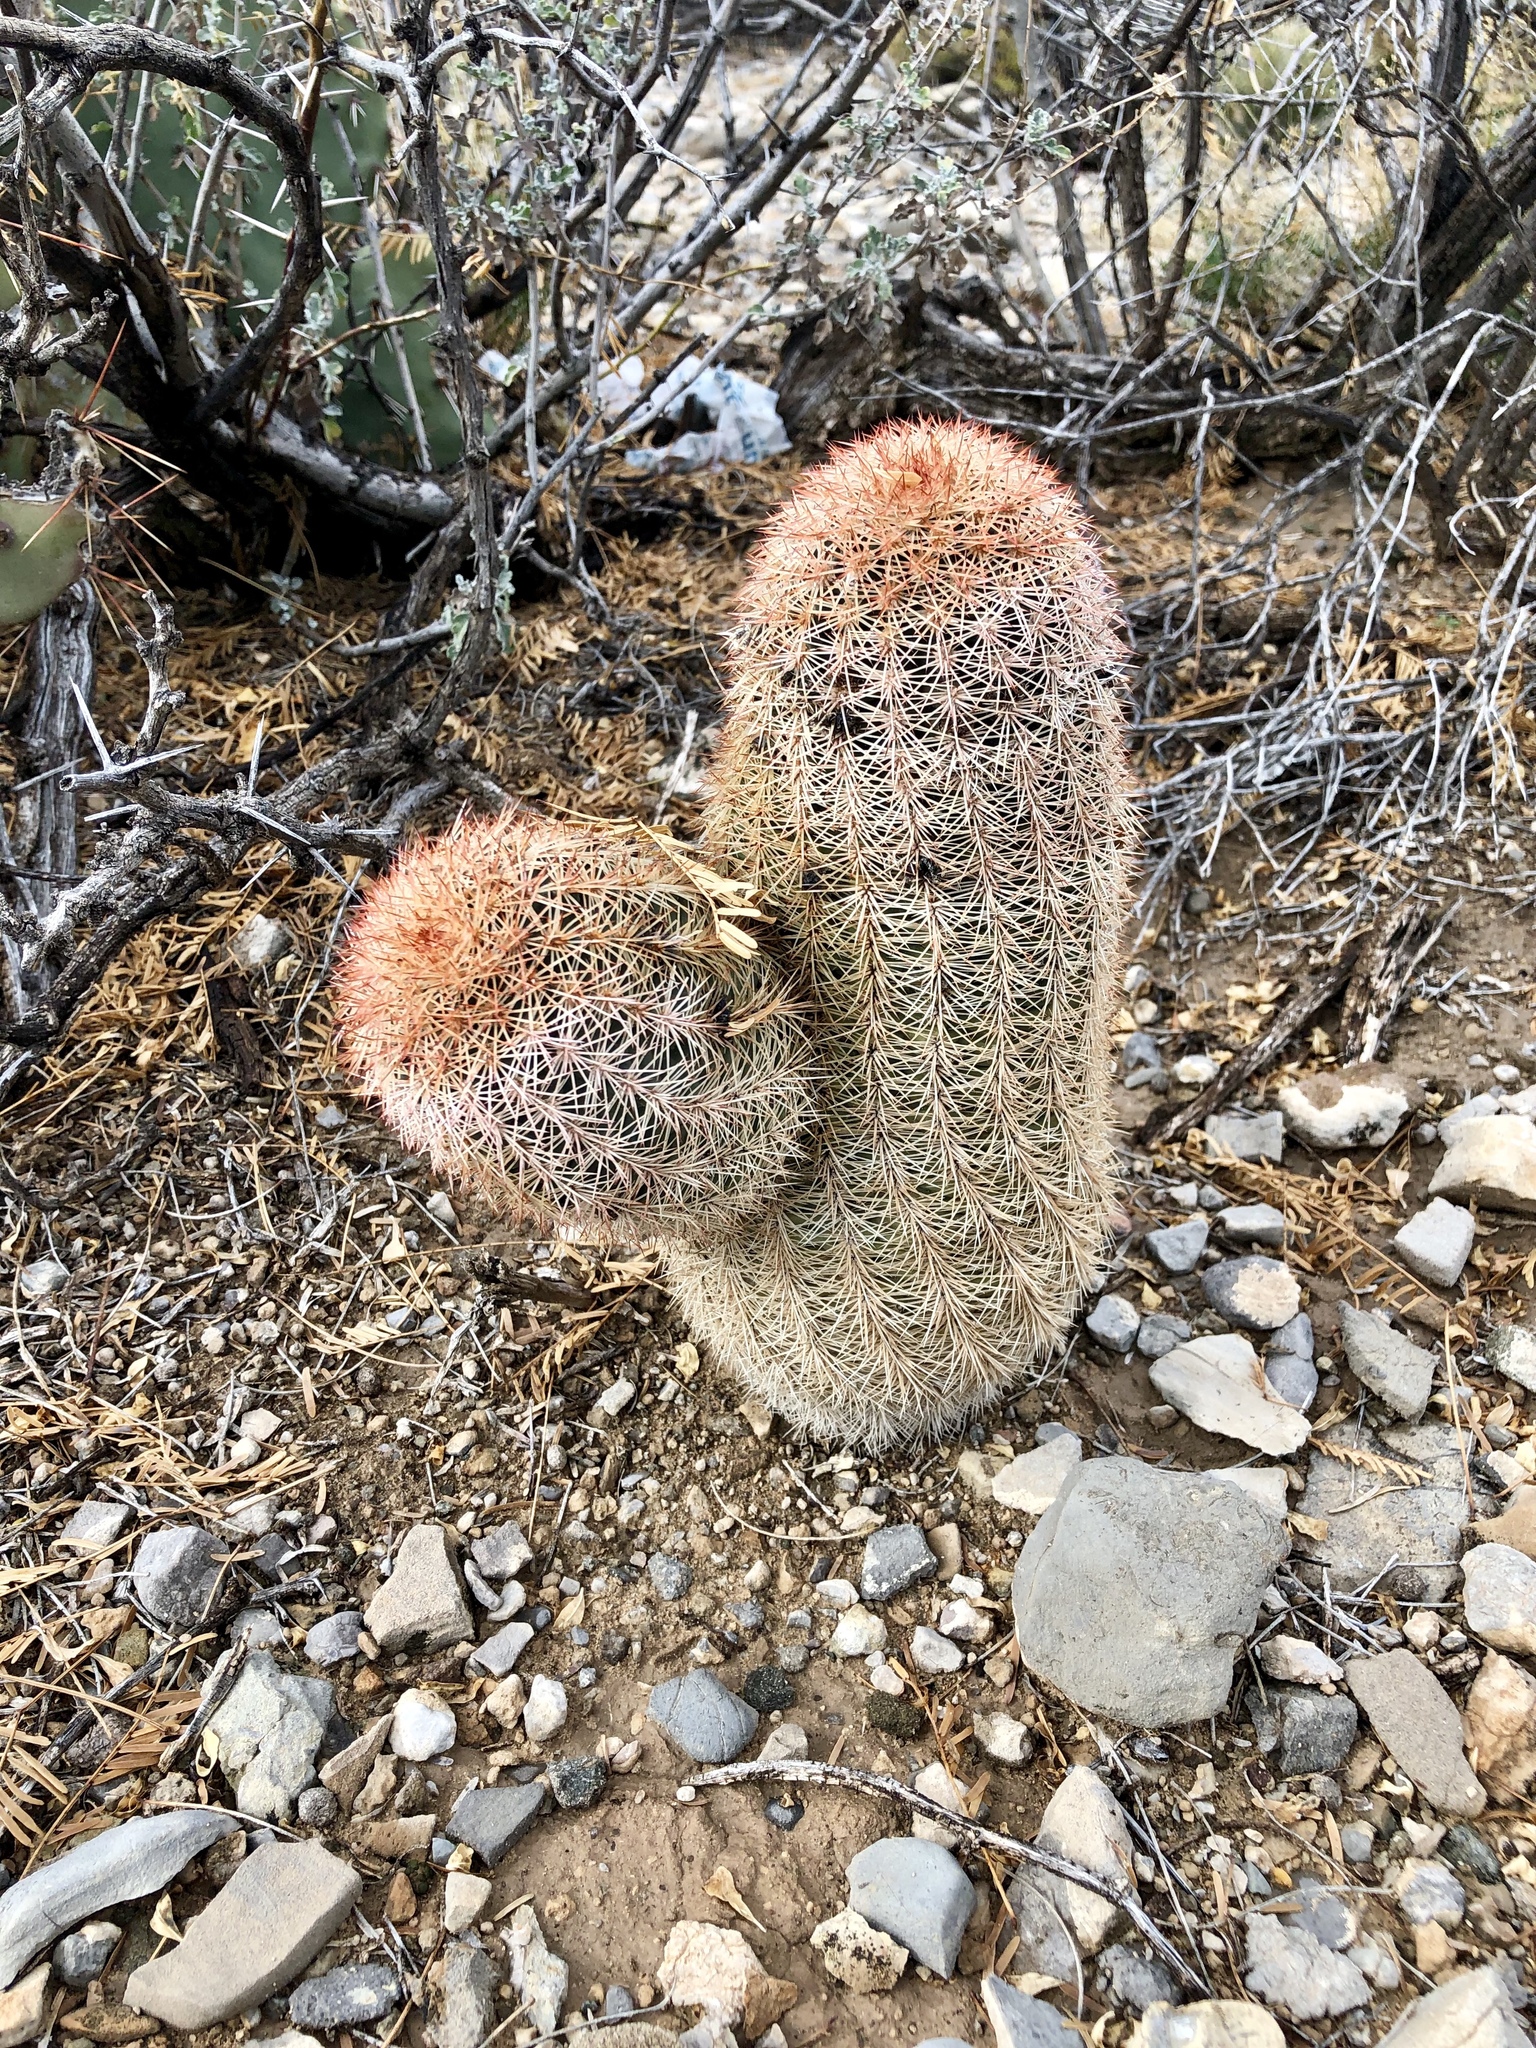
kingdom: Plantae
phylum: Tracheophyta
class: Magnoliopsida
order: Caryophyllales
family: Cactaceae
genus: Echinocereus
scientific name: Echinocereus dasyacanthus
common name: Spiny hedgehog cactus
